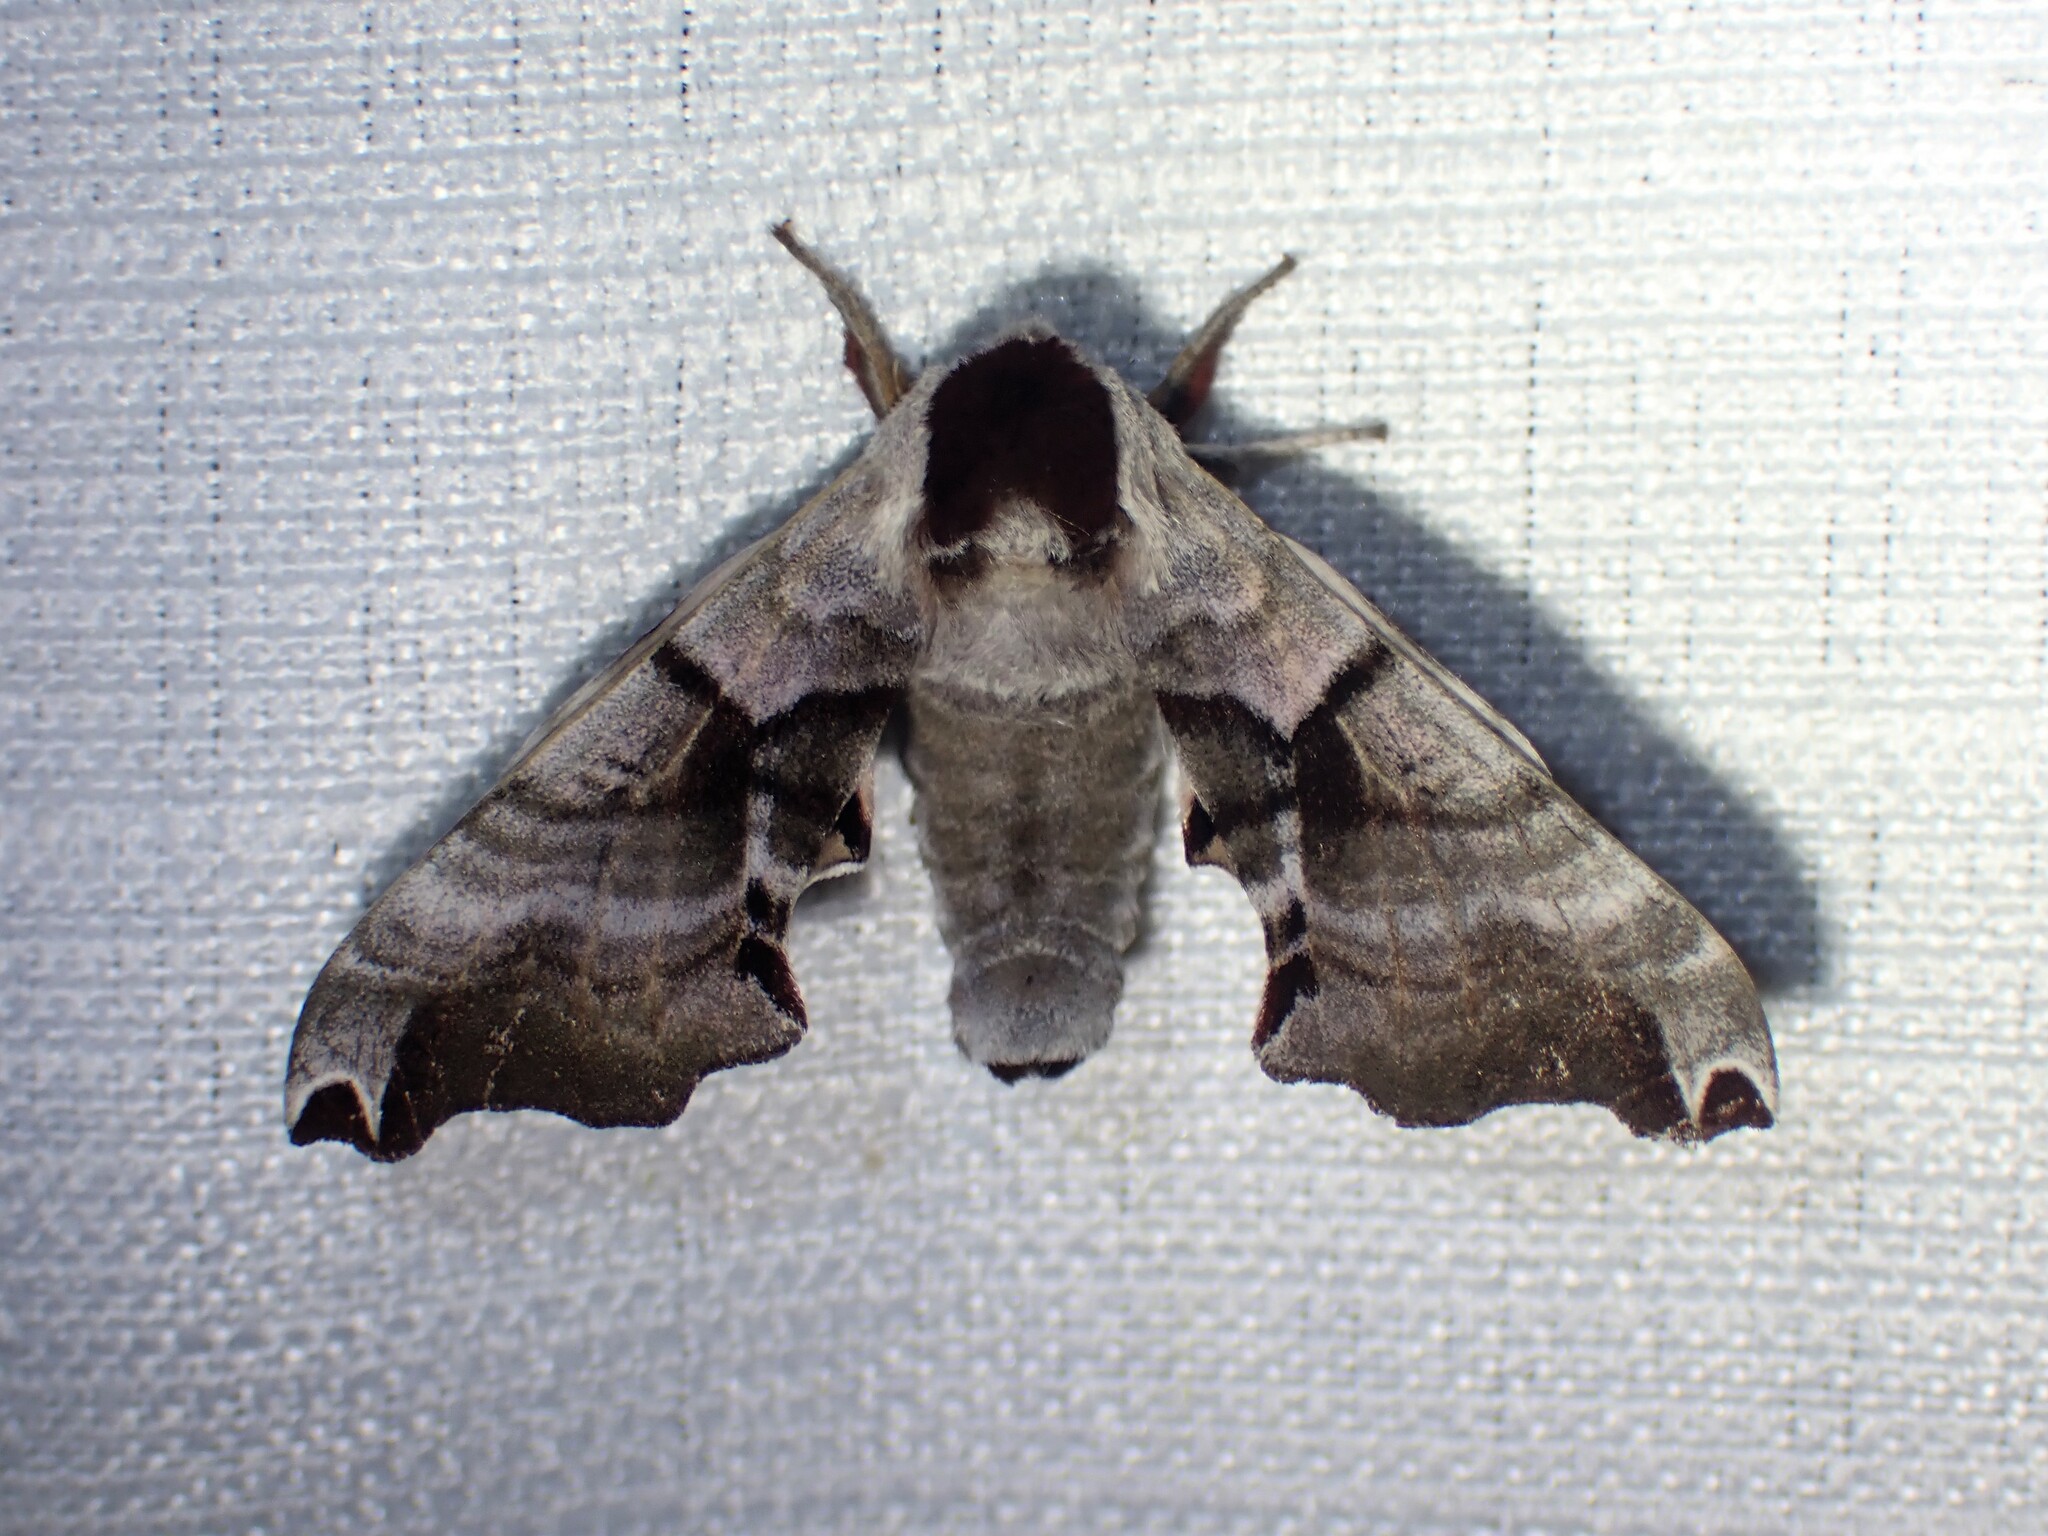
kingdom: Animalia
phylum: Arthropoda
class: Insecta
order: Lepidoptera
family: Sphingidae
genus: Smerinthus
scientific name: Smerinthus jamaicensis
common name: Twin spotted sphinx
